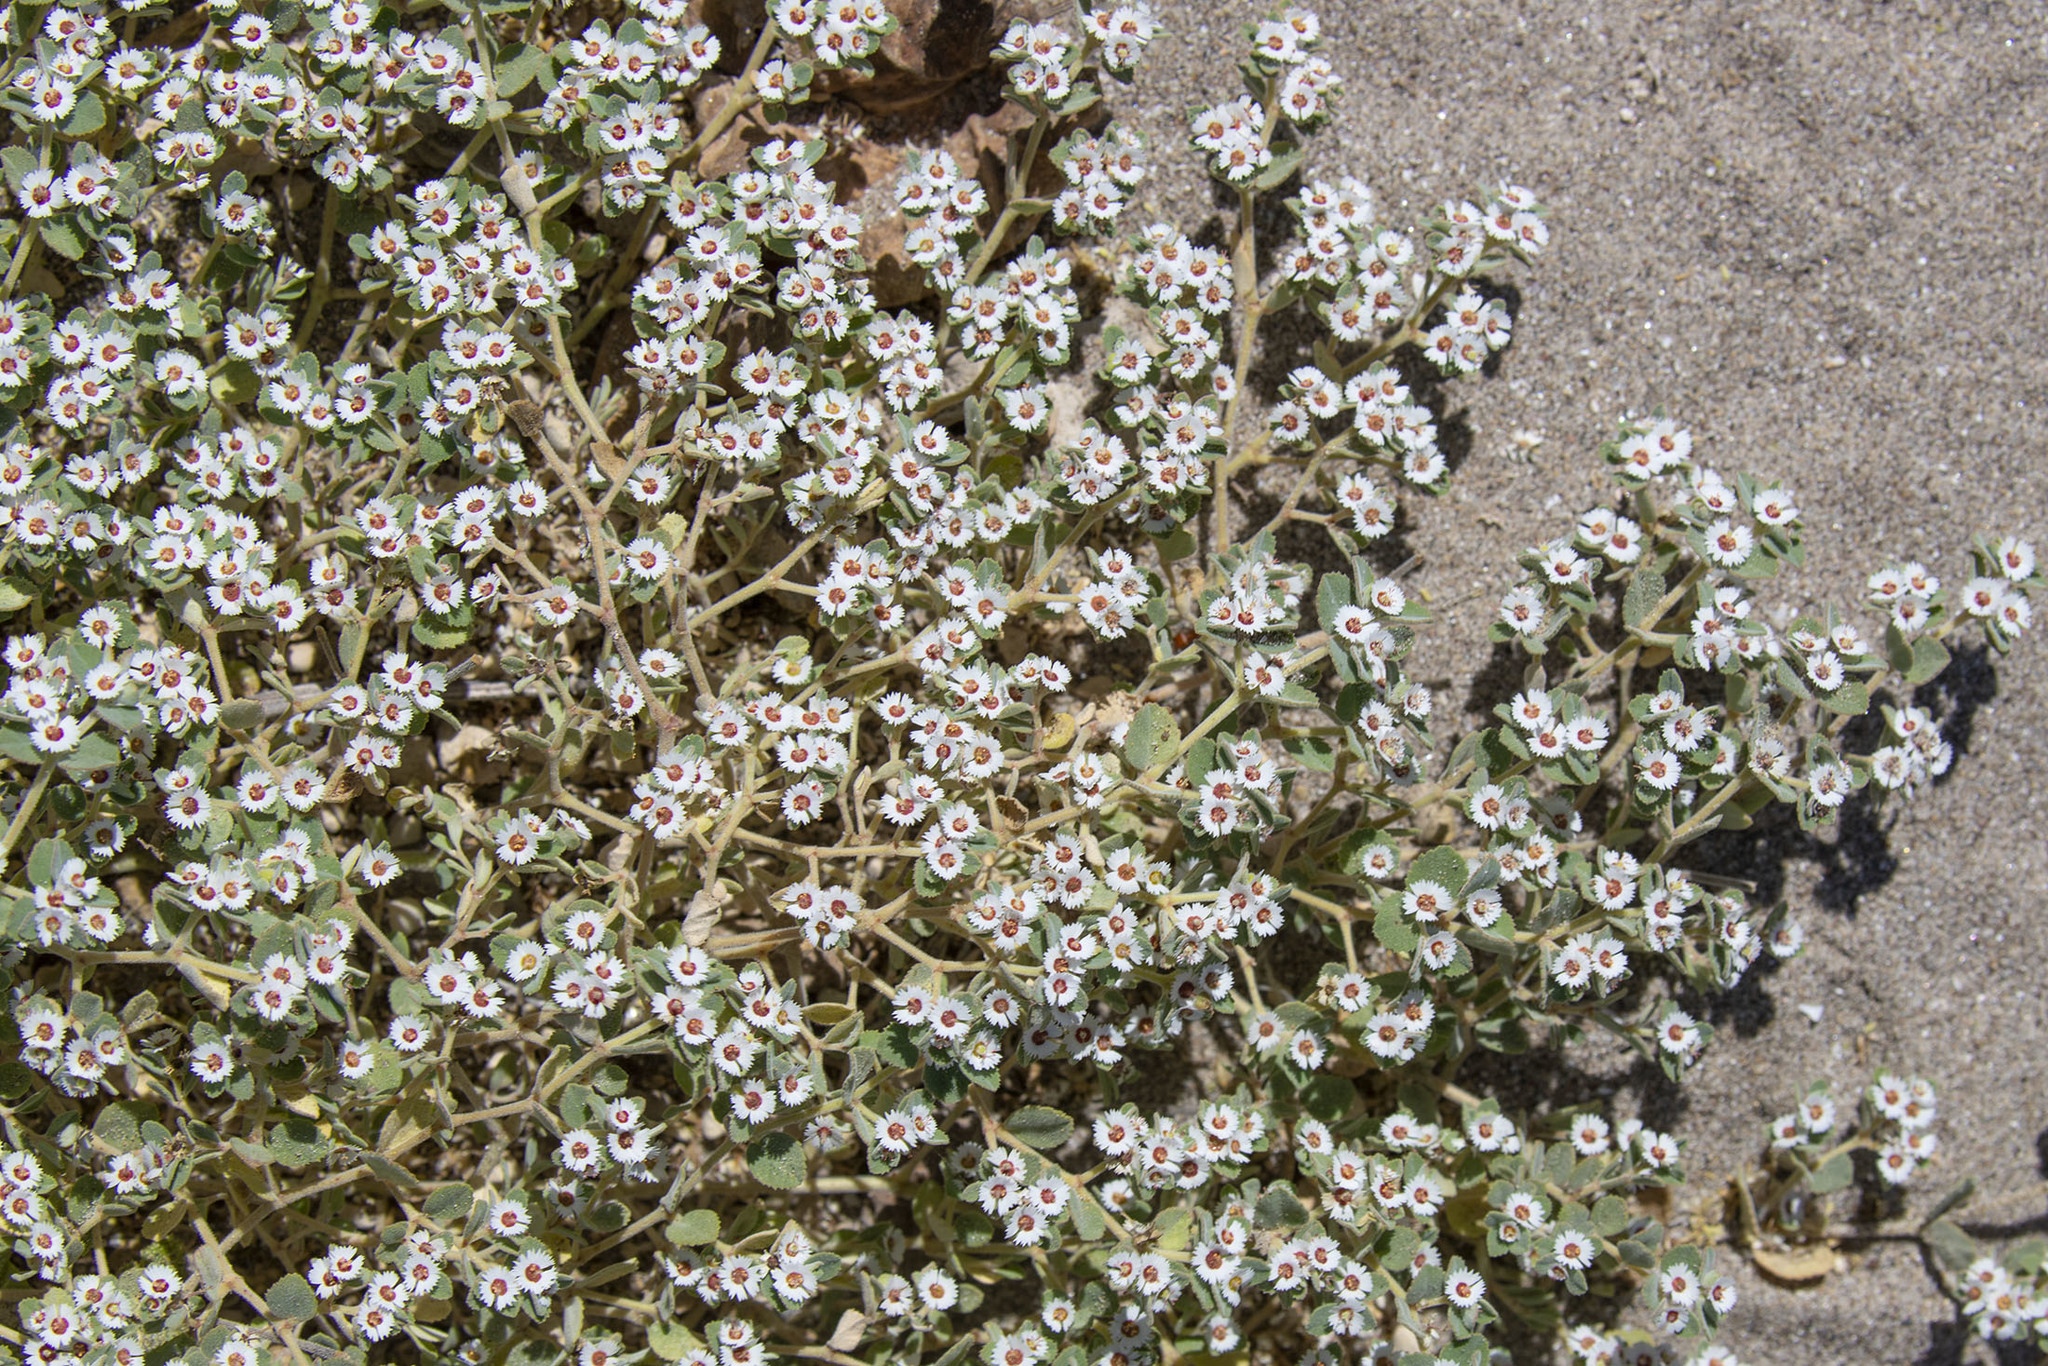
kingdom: Plantae
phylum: Tracheophyta
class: Magnoliopsida
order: Malpighiales
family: Euphorbiaceae
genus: Euphorbia
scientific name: Euphorbia leucophylla
